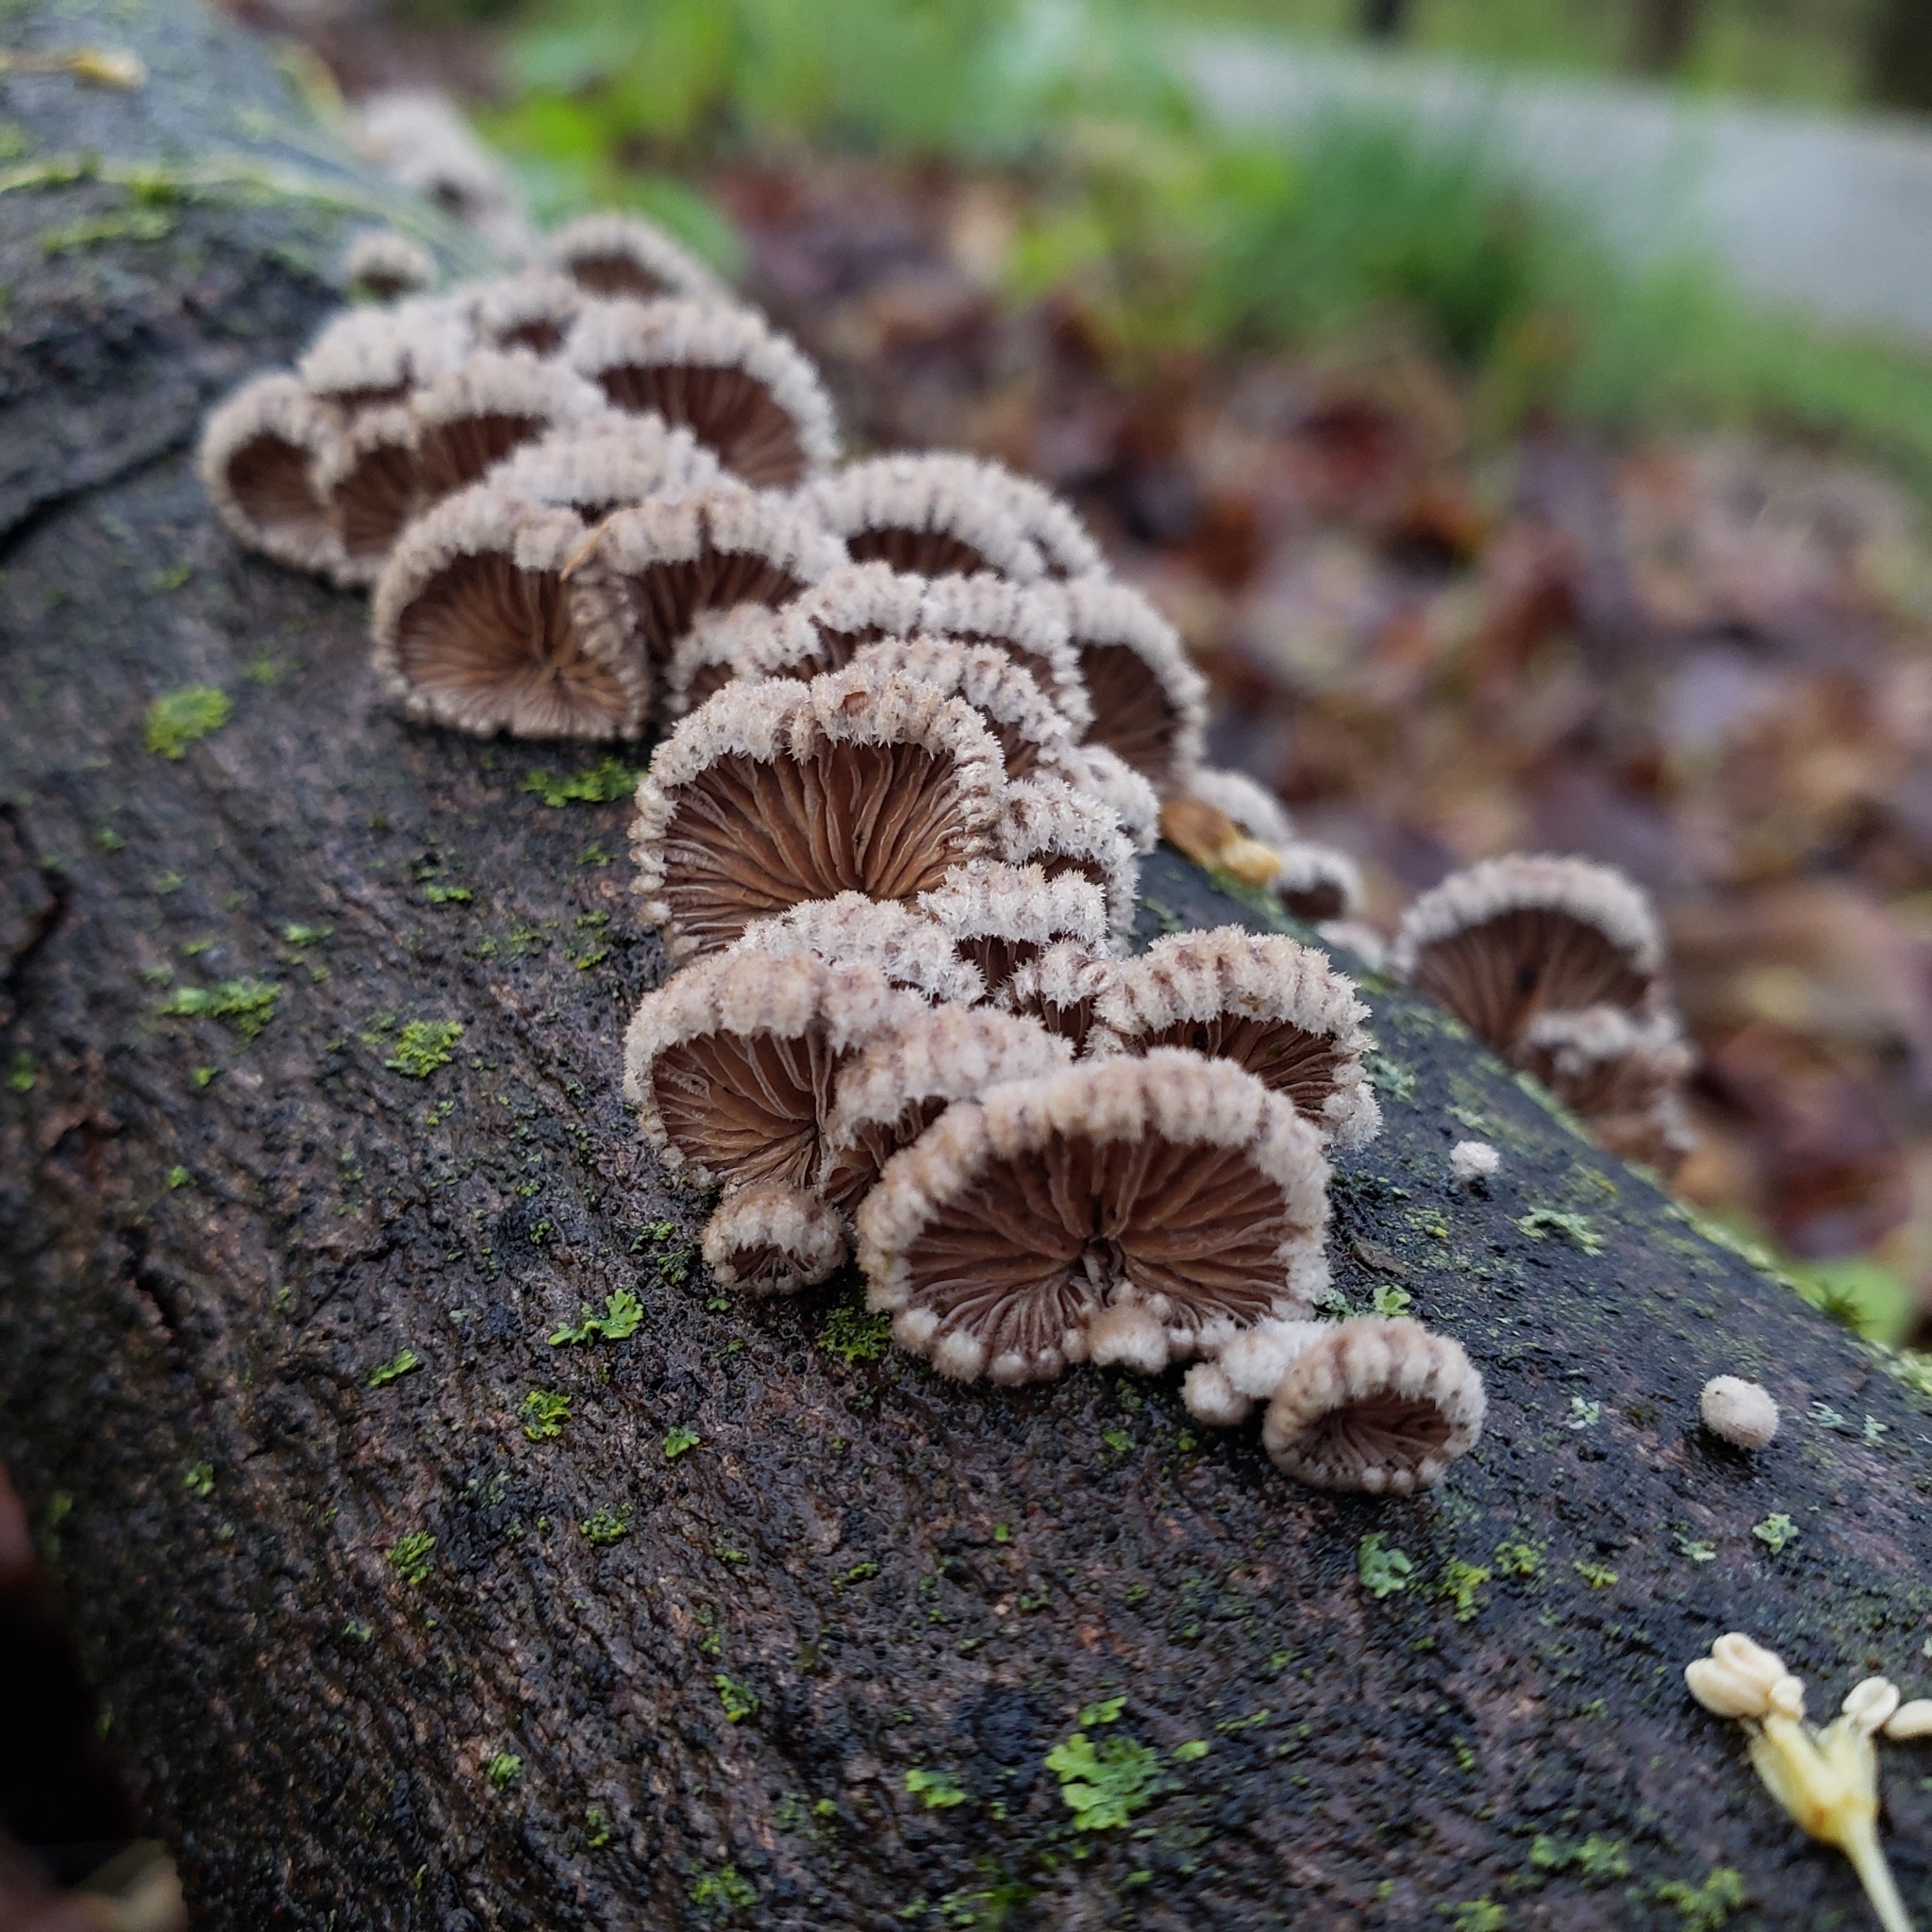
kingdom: Fungi
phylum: Basidiomycota
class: Agaricomycetes
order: Agaricales
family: Schizophyllaceae
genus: Schizophyllum
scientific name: Schizophyllum commune
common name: Common porecrust
